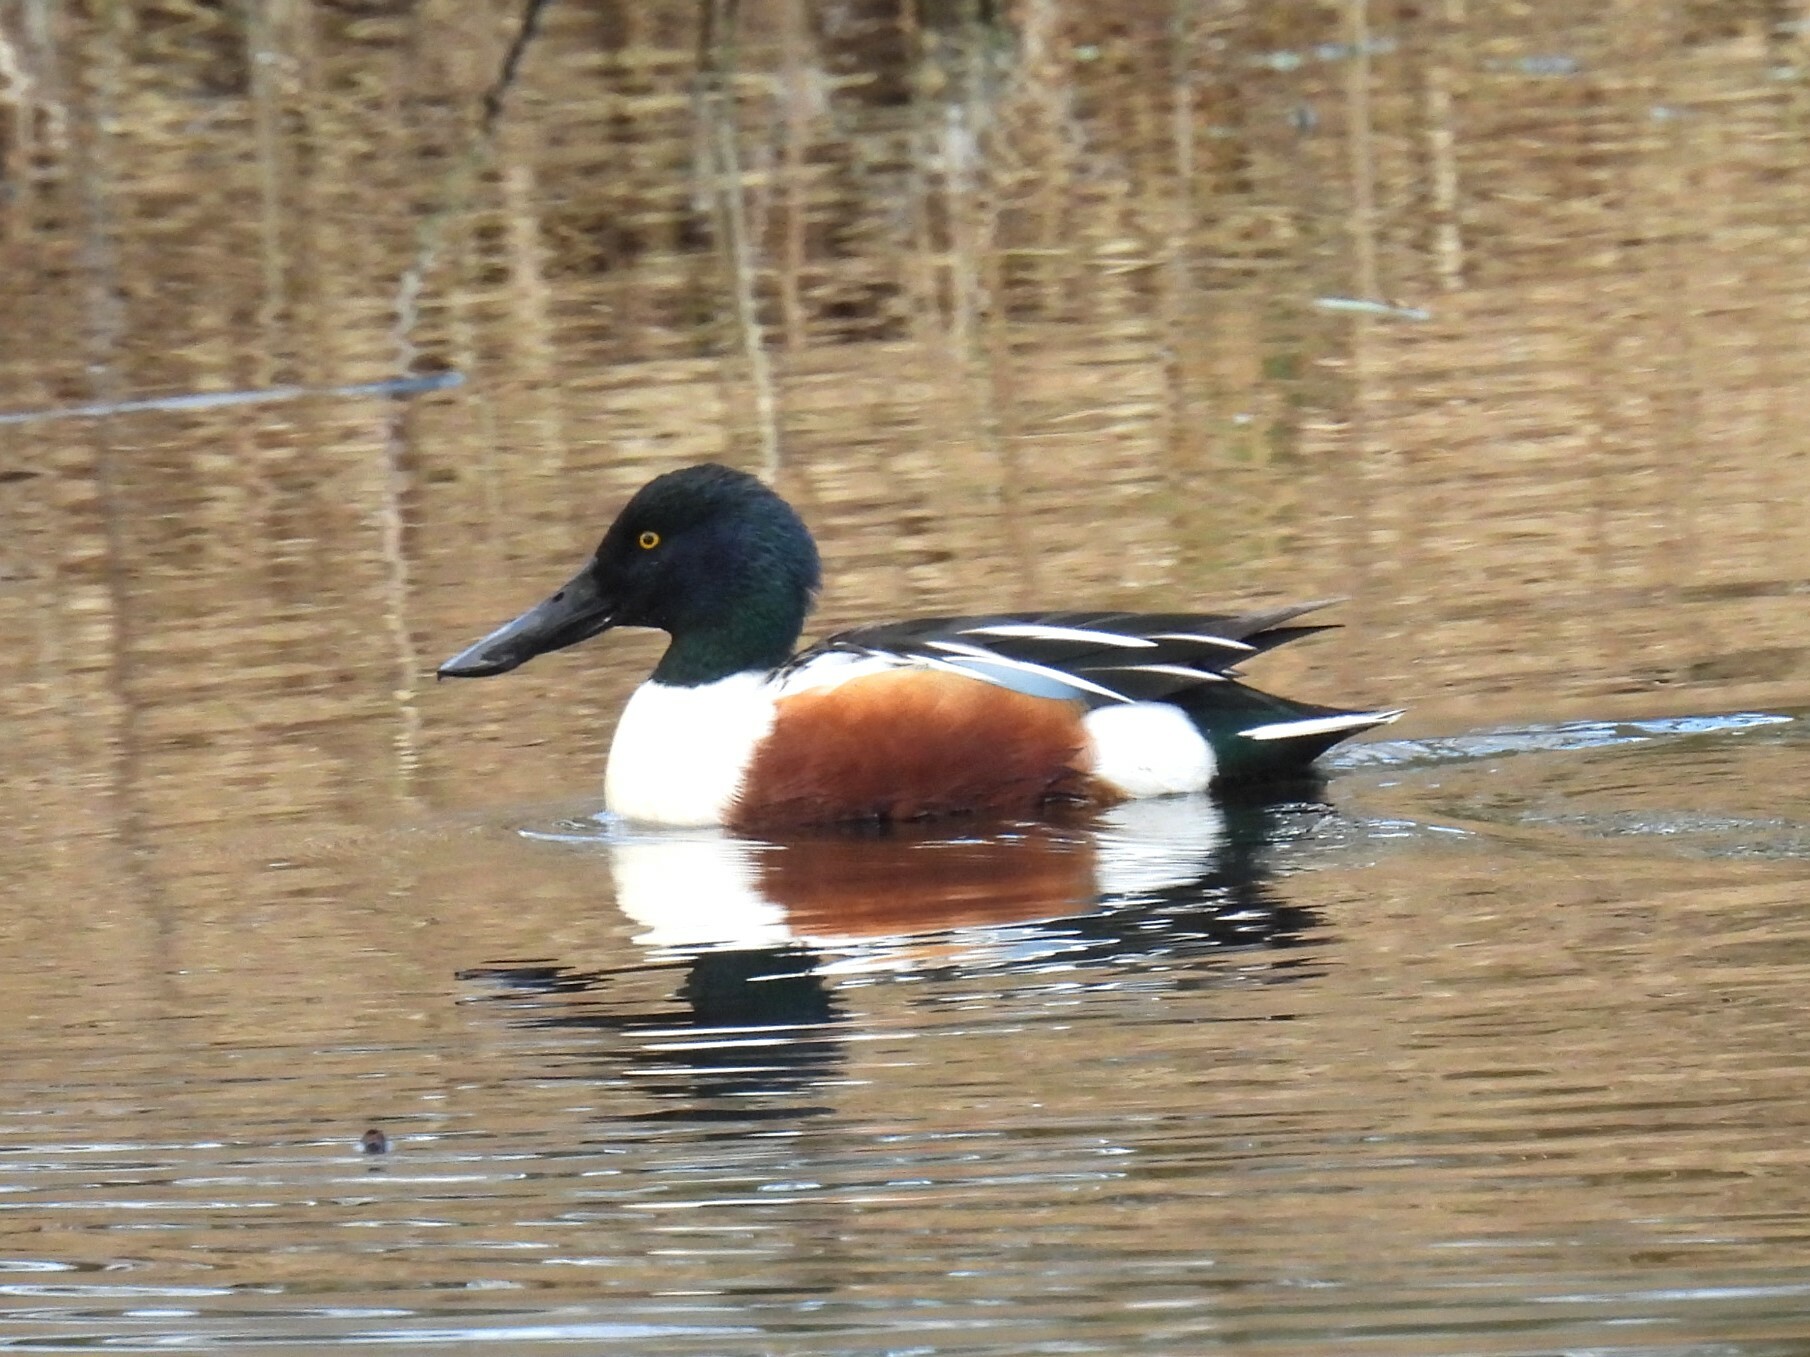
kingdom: Animalia
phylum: Chordata
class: Aves
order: Anseriformes
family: Anatidae
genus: Spatula
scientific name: Spatula clypeata
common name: Northern shoveler
